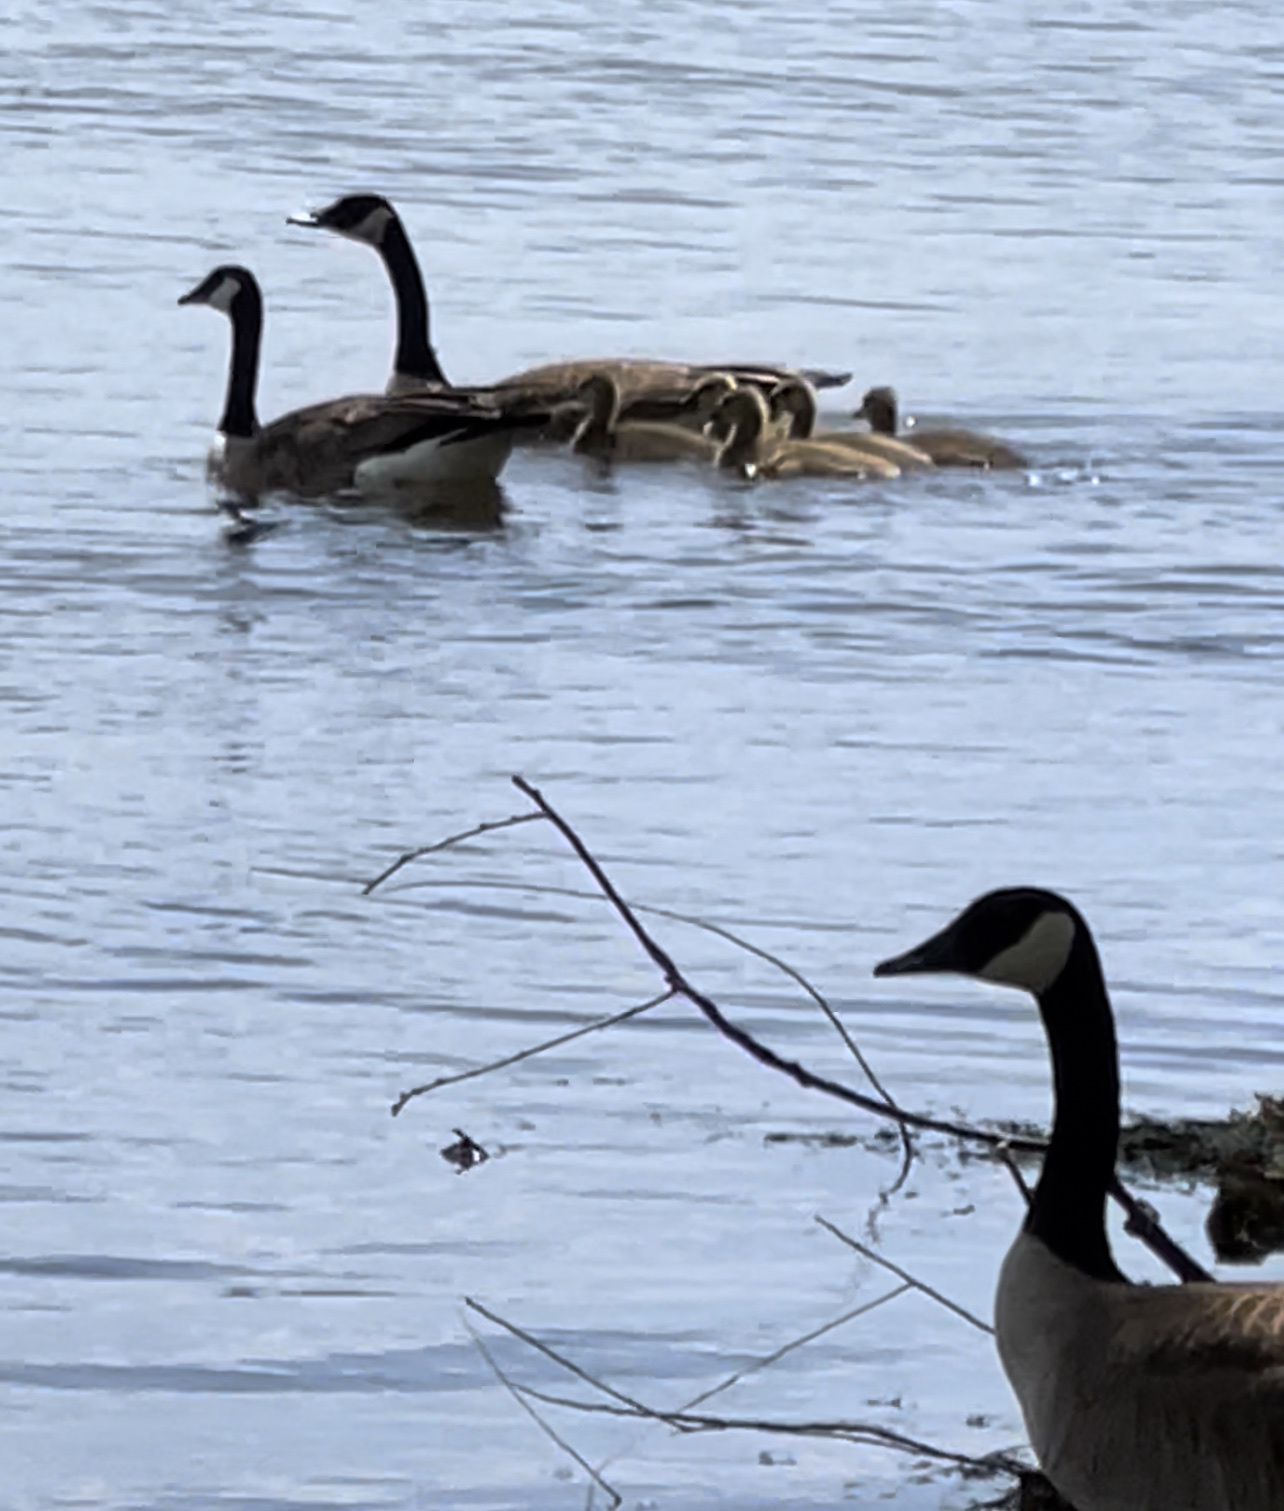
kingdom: Animalia
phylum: Chordata
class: Aves
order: Anseriformes
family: Anatidae
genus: Branta
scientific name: Branta canadensis
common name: Canada goose
